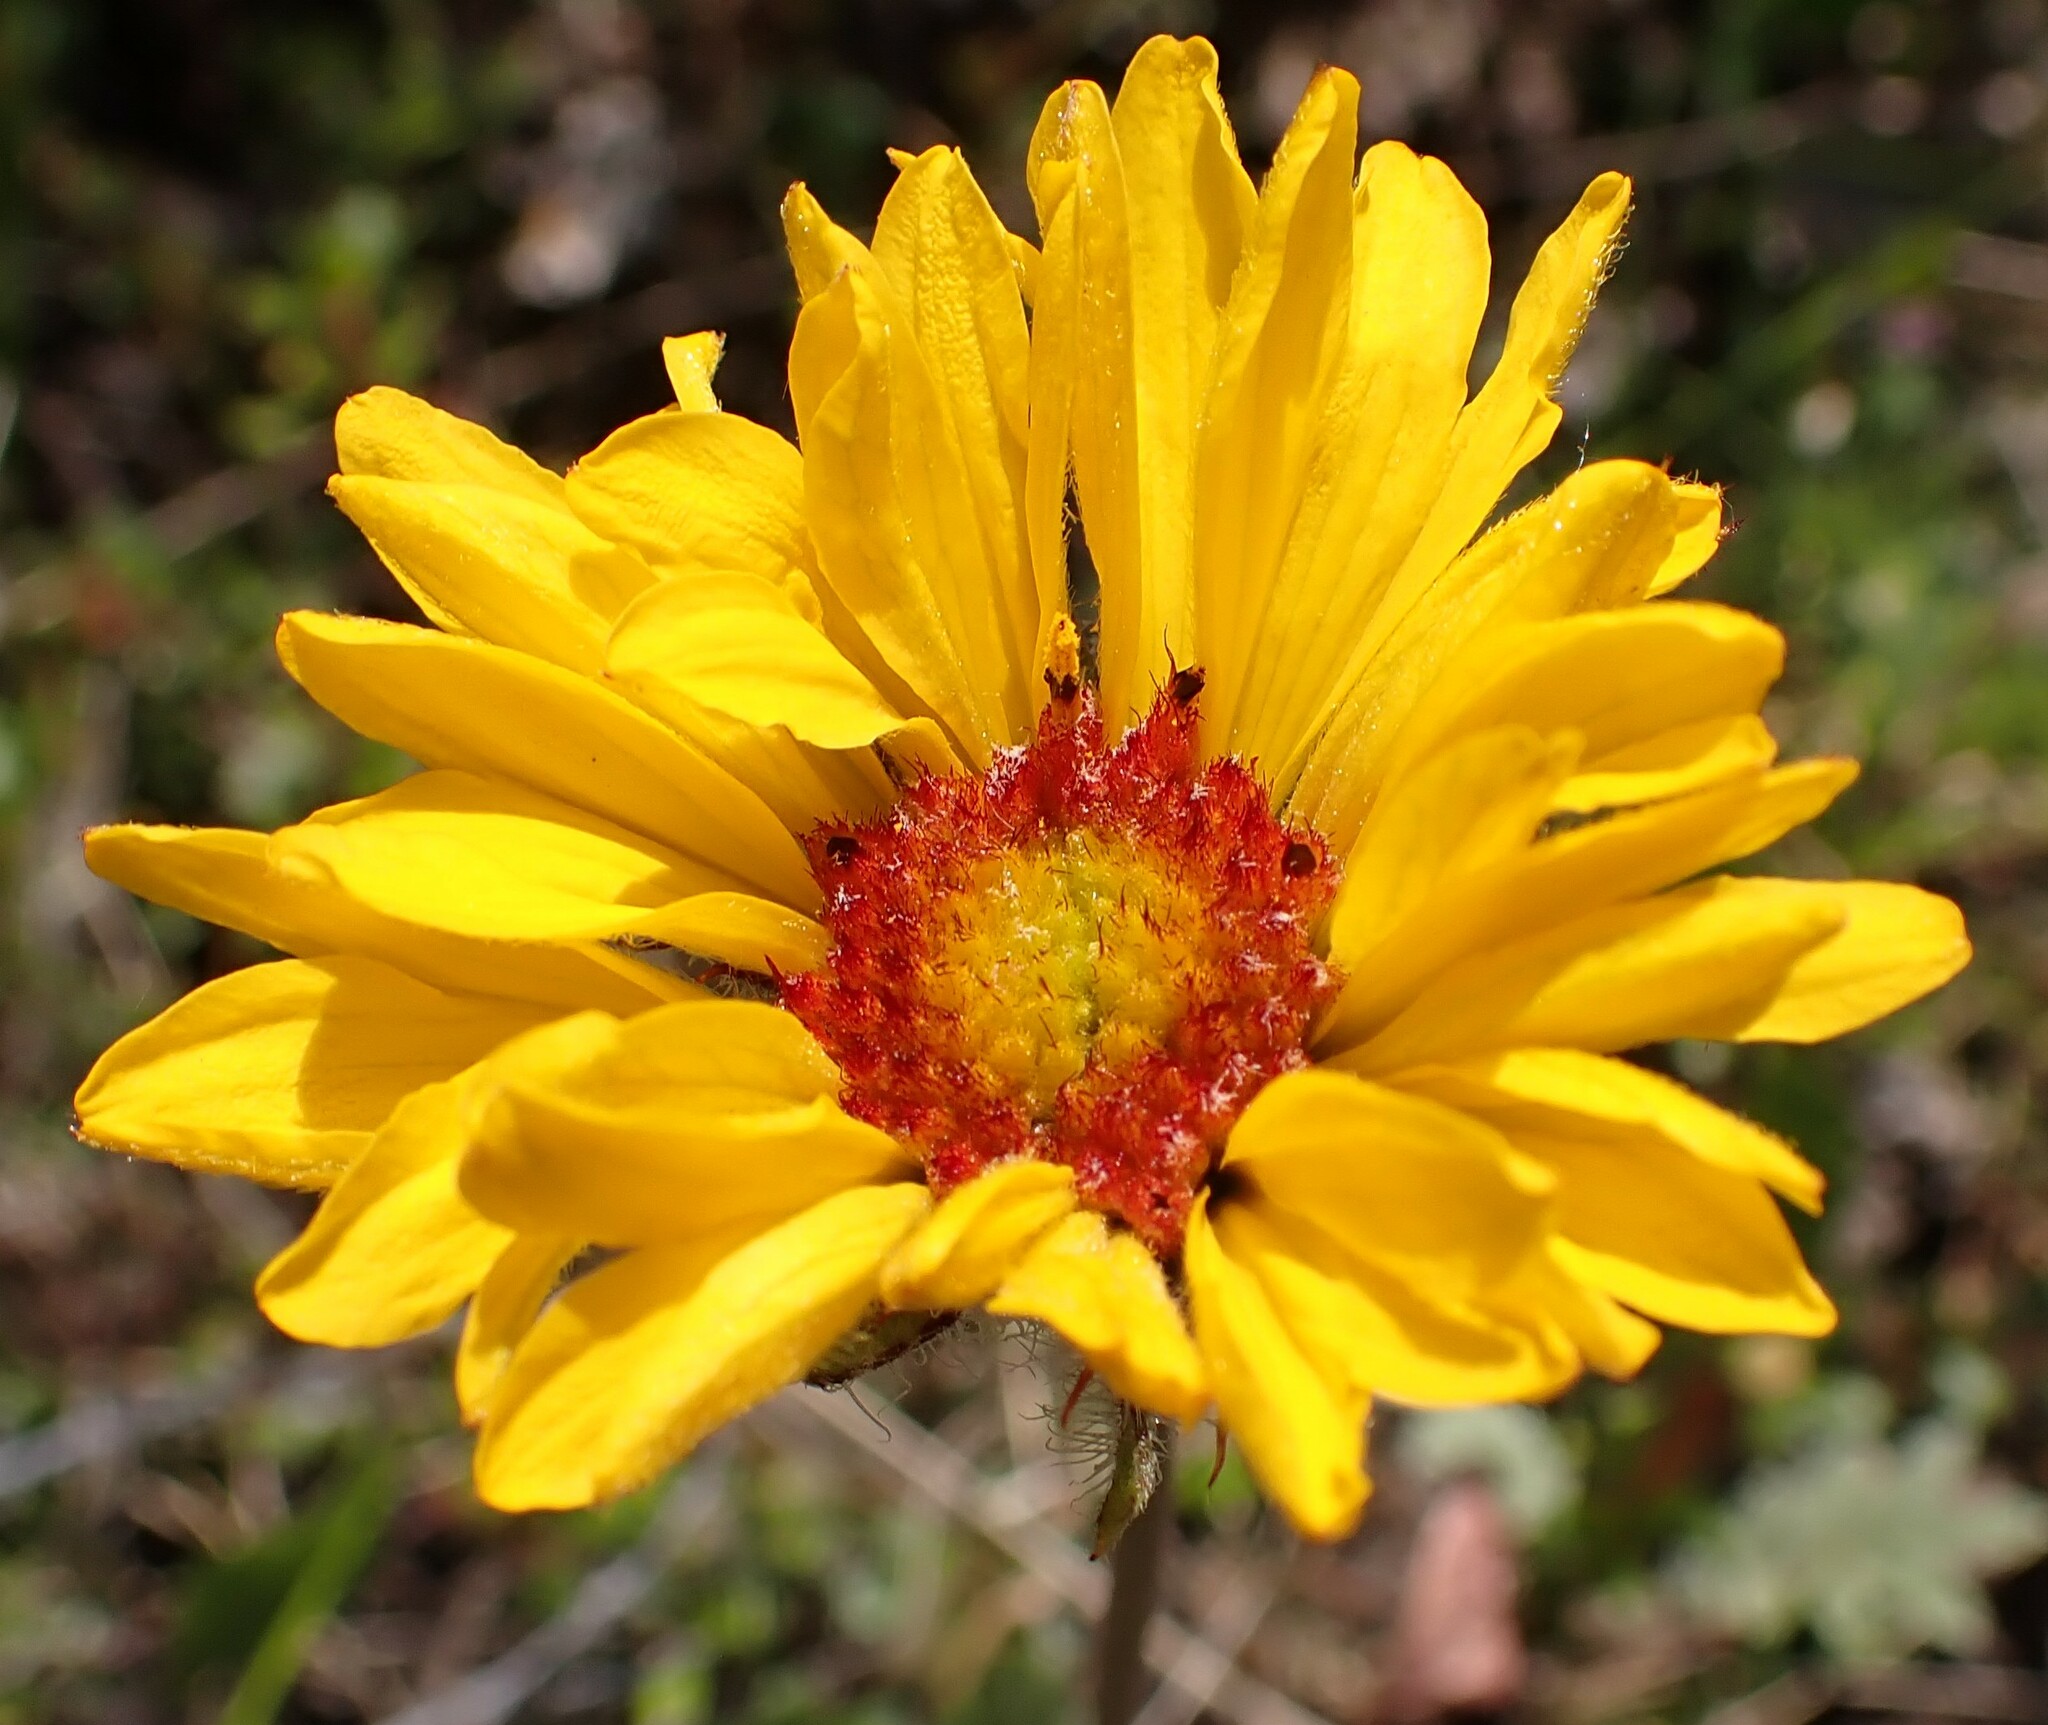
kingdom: Plantae
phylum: Tracheophyta
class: Magnoliopsida
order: Asterales
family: Asteraceae
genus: Gaillardia
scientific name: Gaillardia aristata
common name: Blanket-flower
